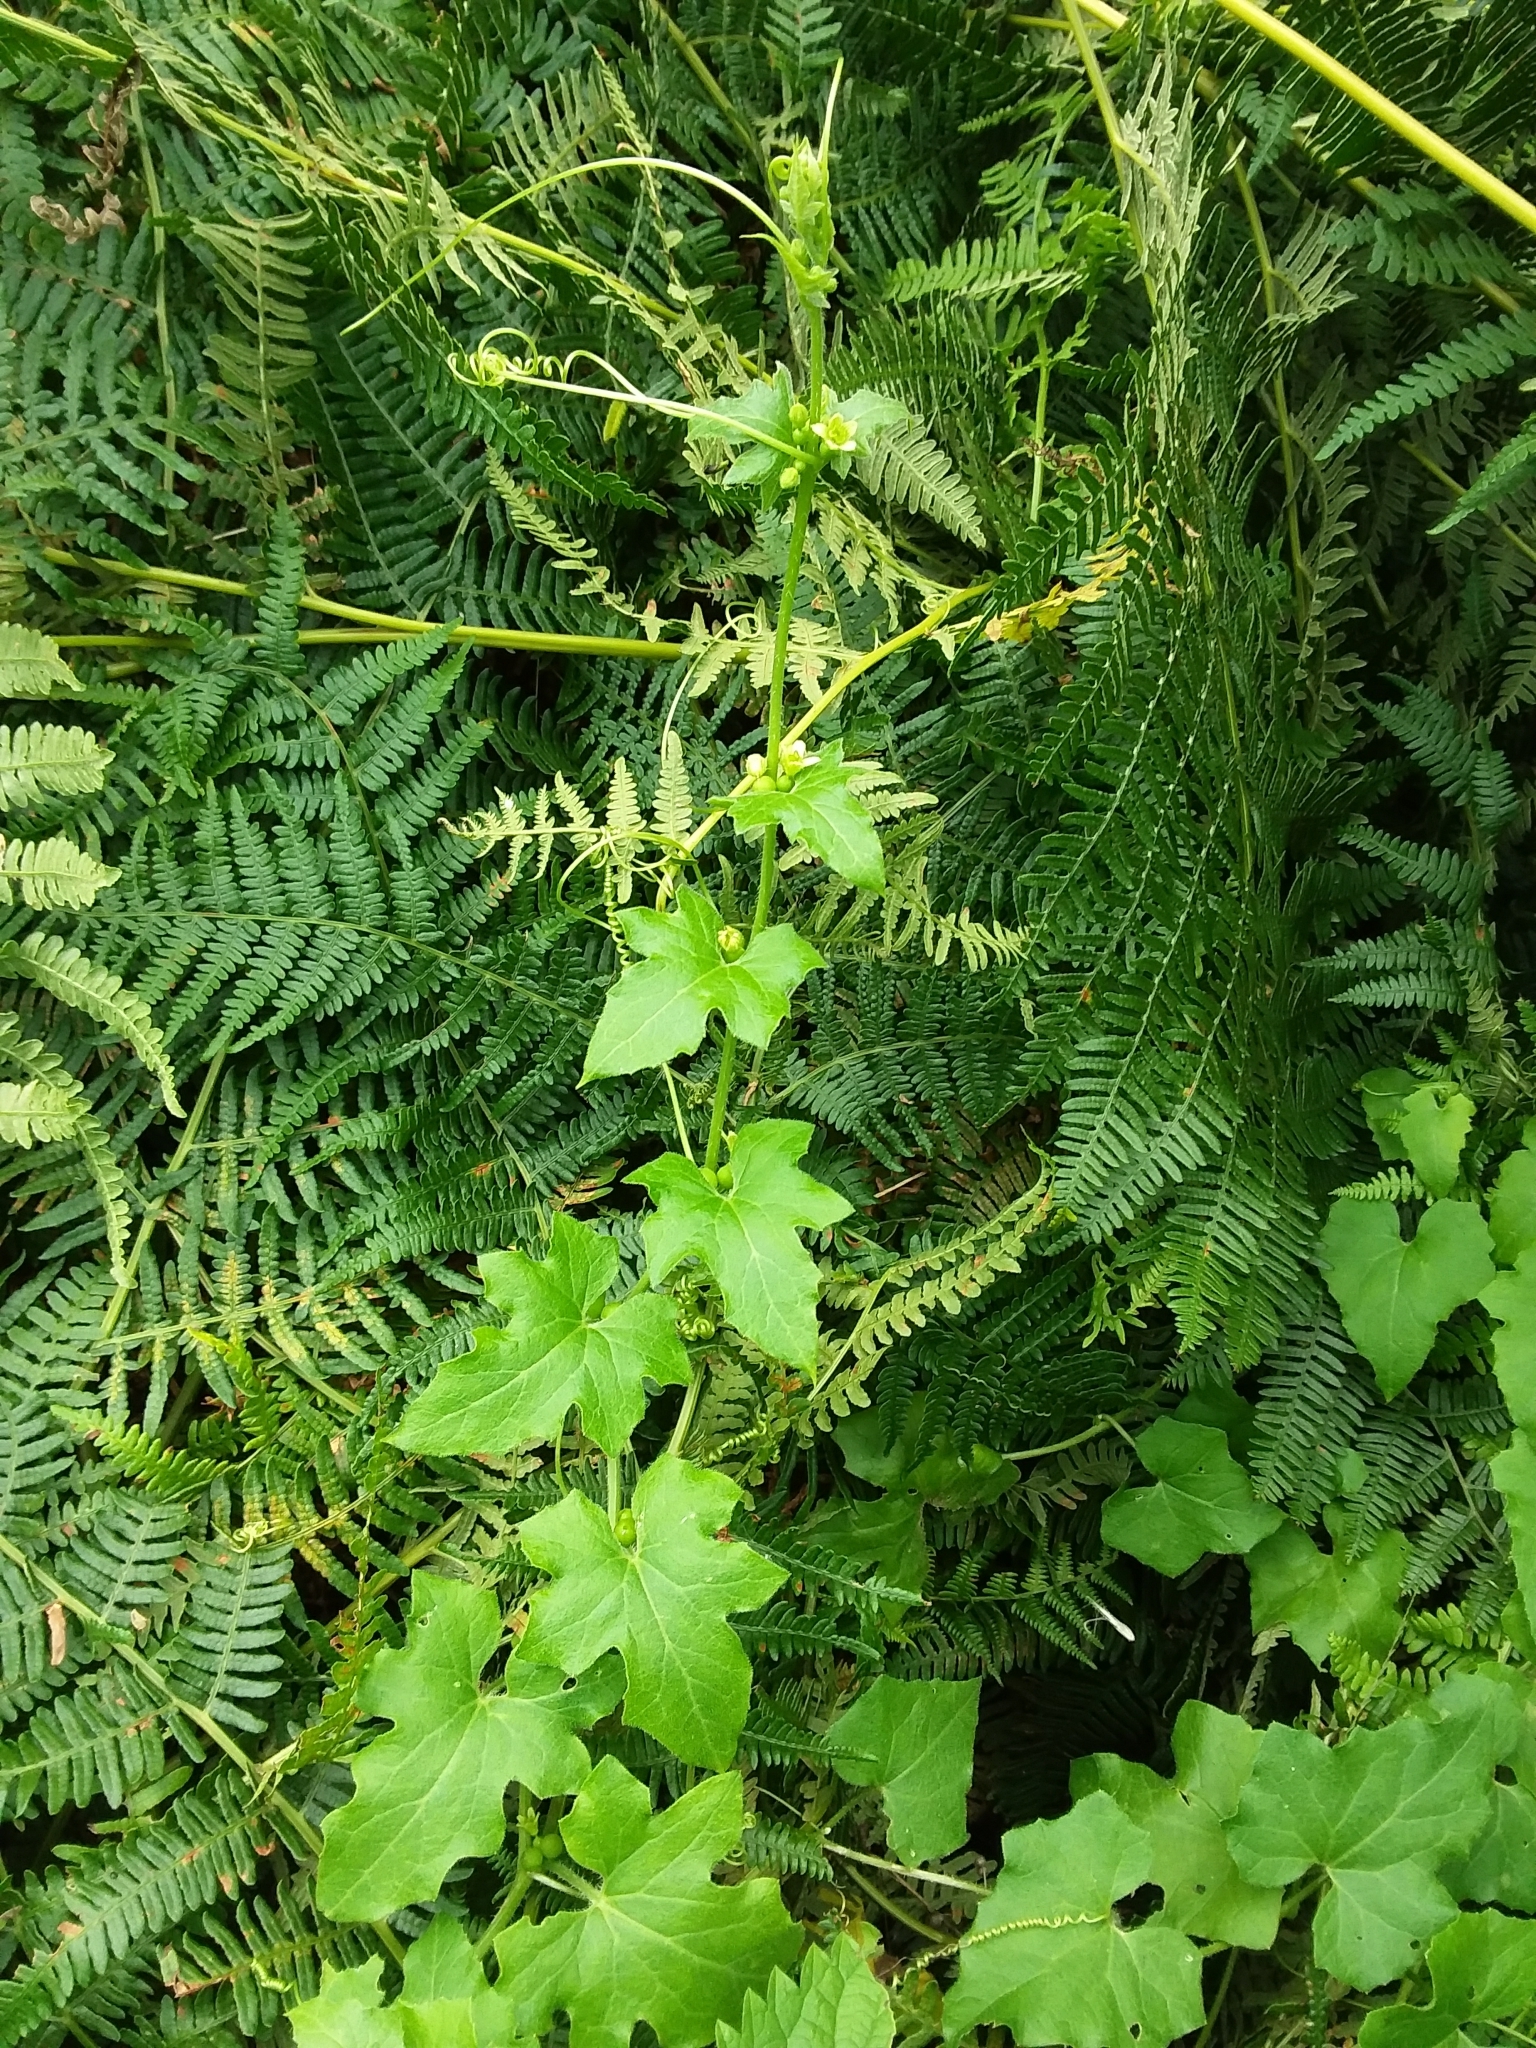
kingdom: Plantae
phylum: Tracheophyta
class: Magnoliopsida
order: Cucurbitales
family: Cucurbitaceae
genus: Bryonia
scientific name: Bryonia cretica
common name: Cretan bryony
